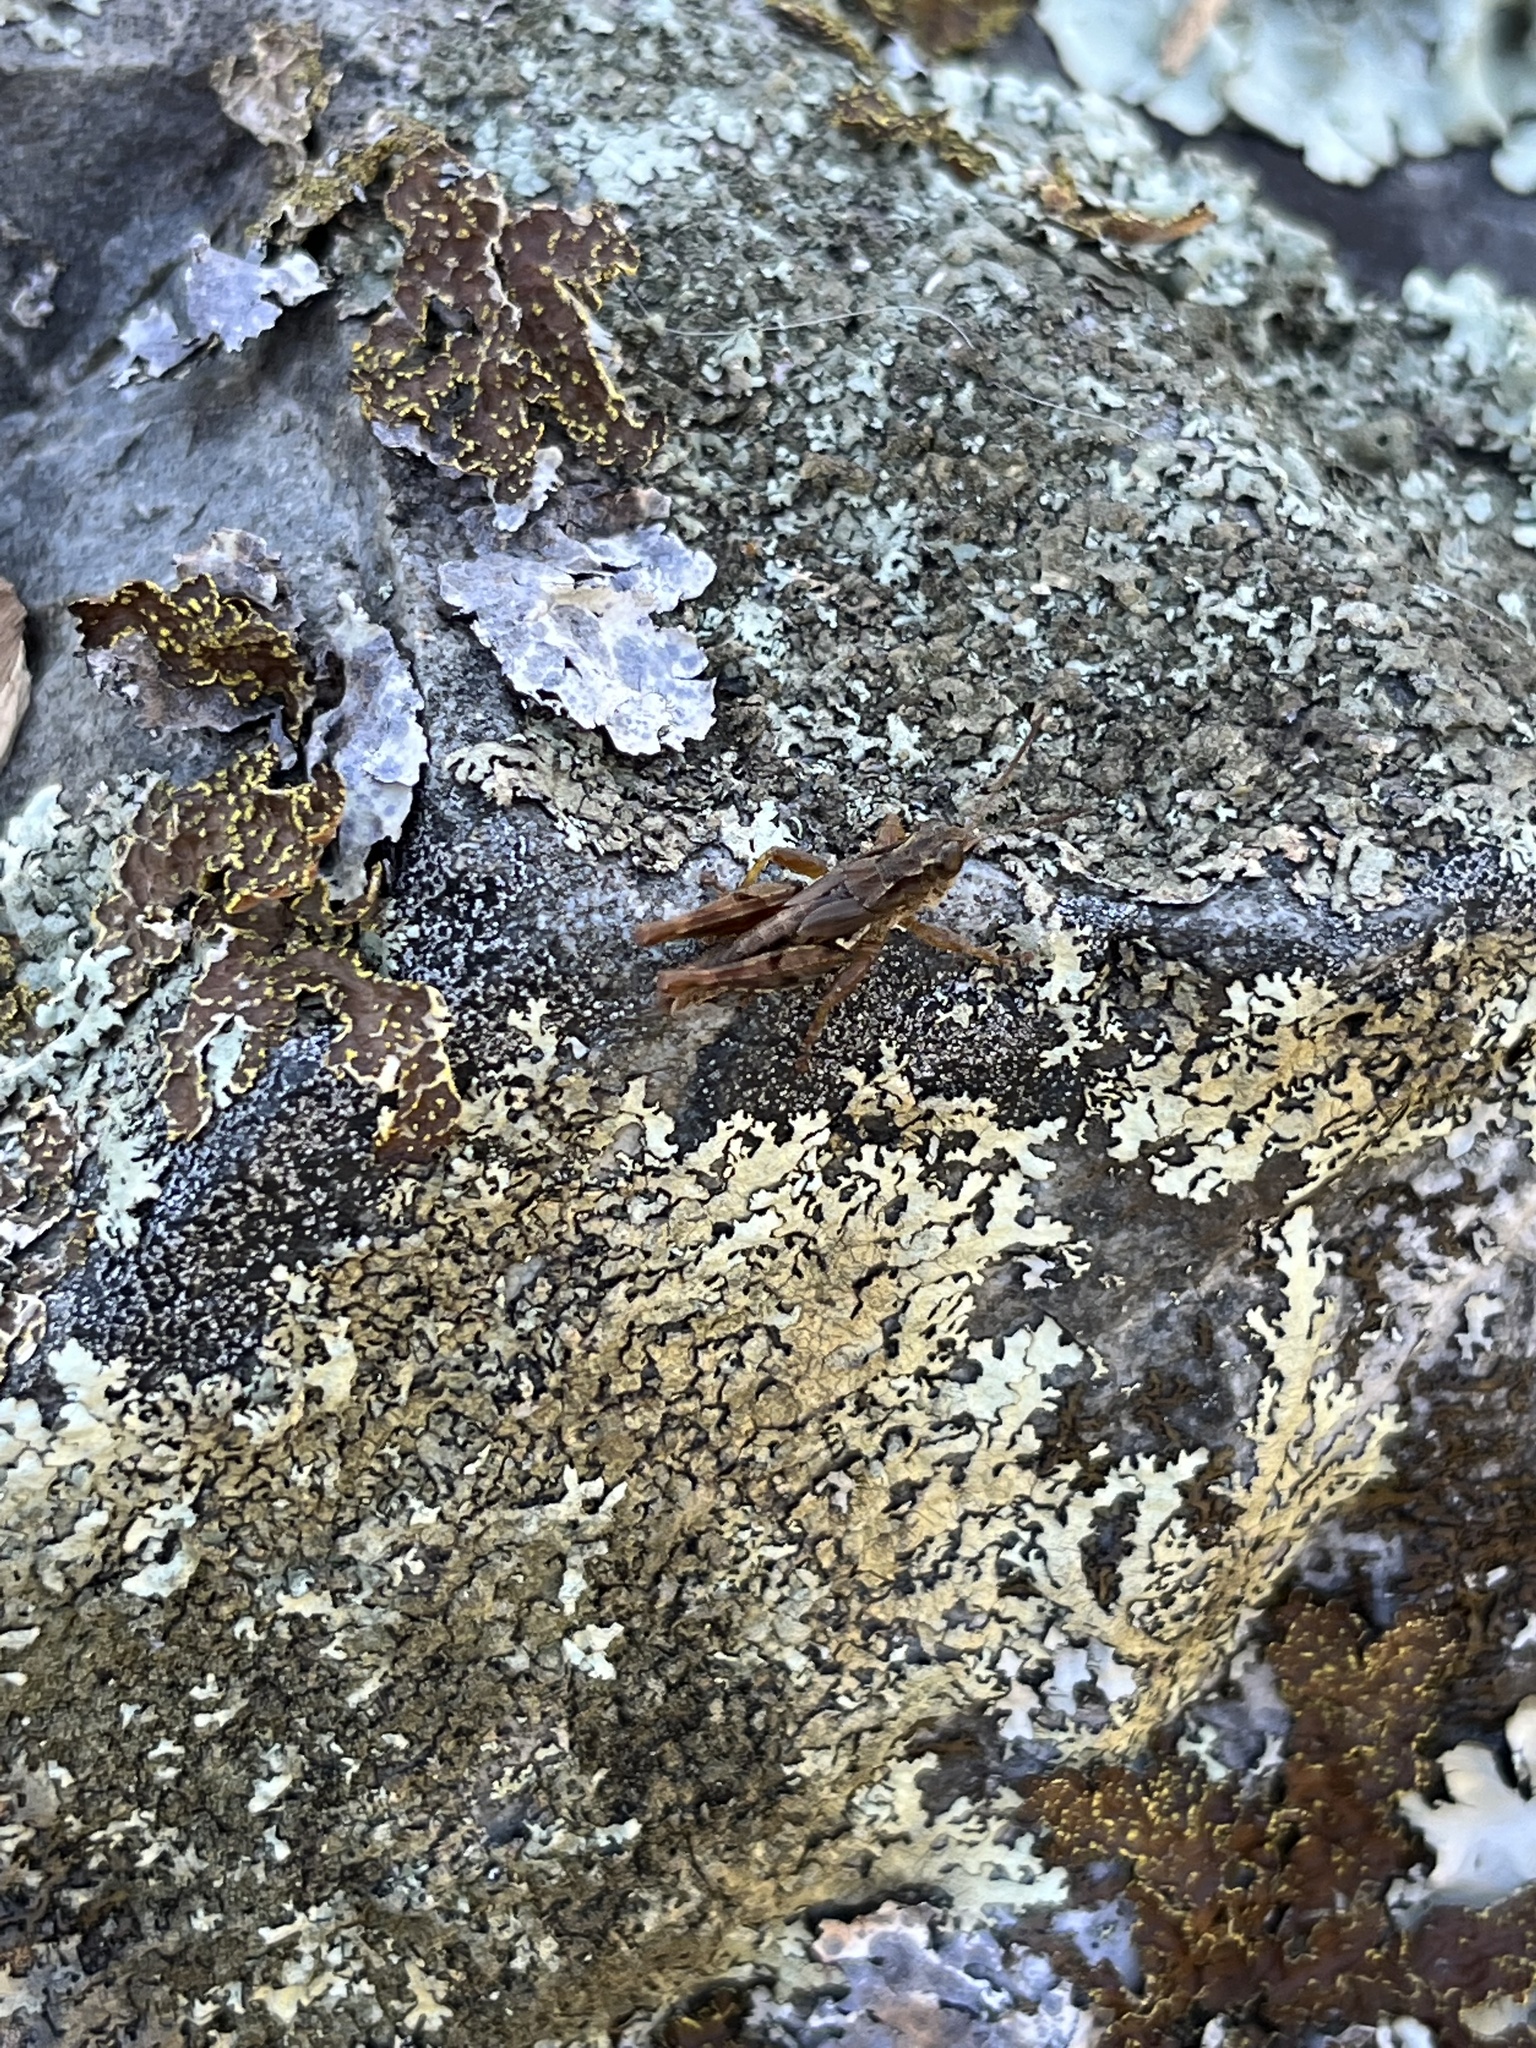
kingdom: Animalia
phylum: Arthropoda
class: Insecta
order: Orthoptera
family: Acrididae
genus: Phaulacridium
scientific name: Phaulacridium marginale
